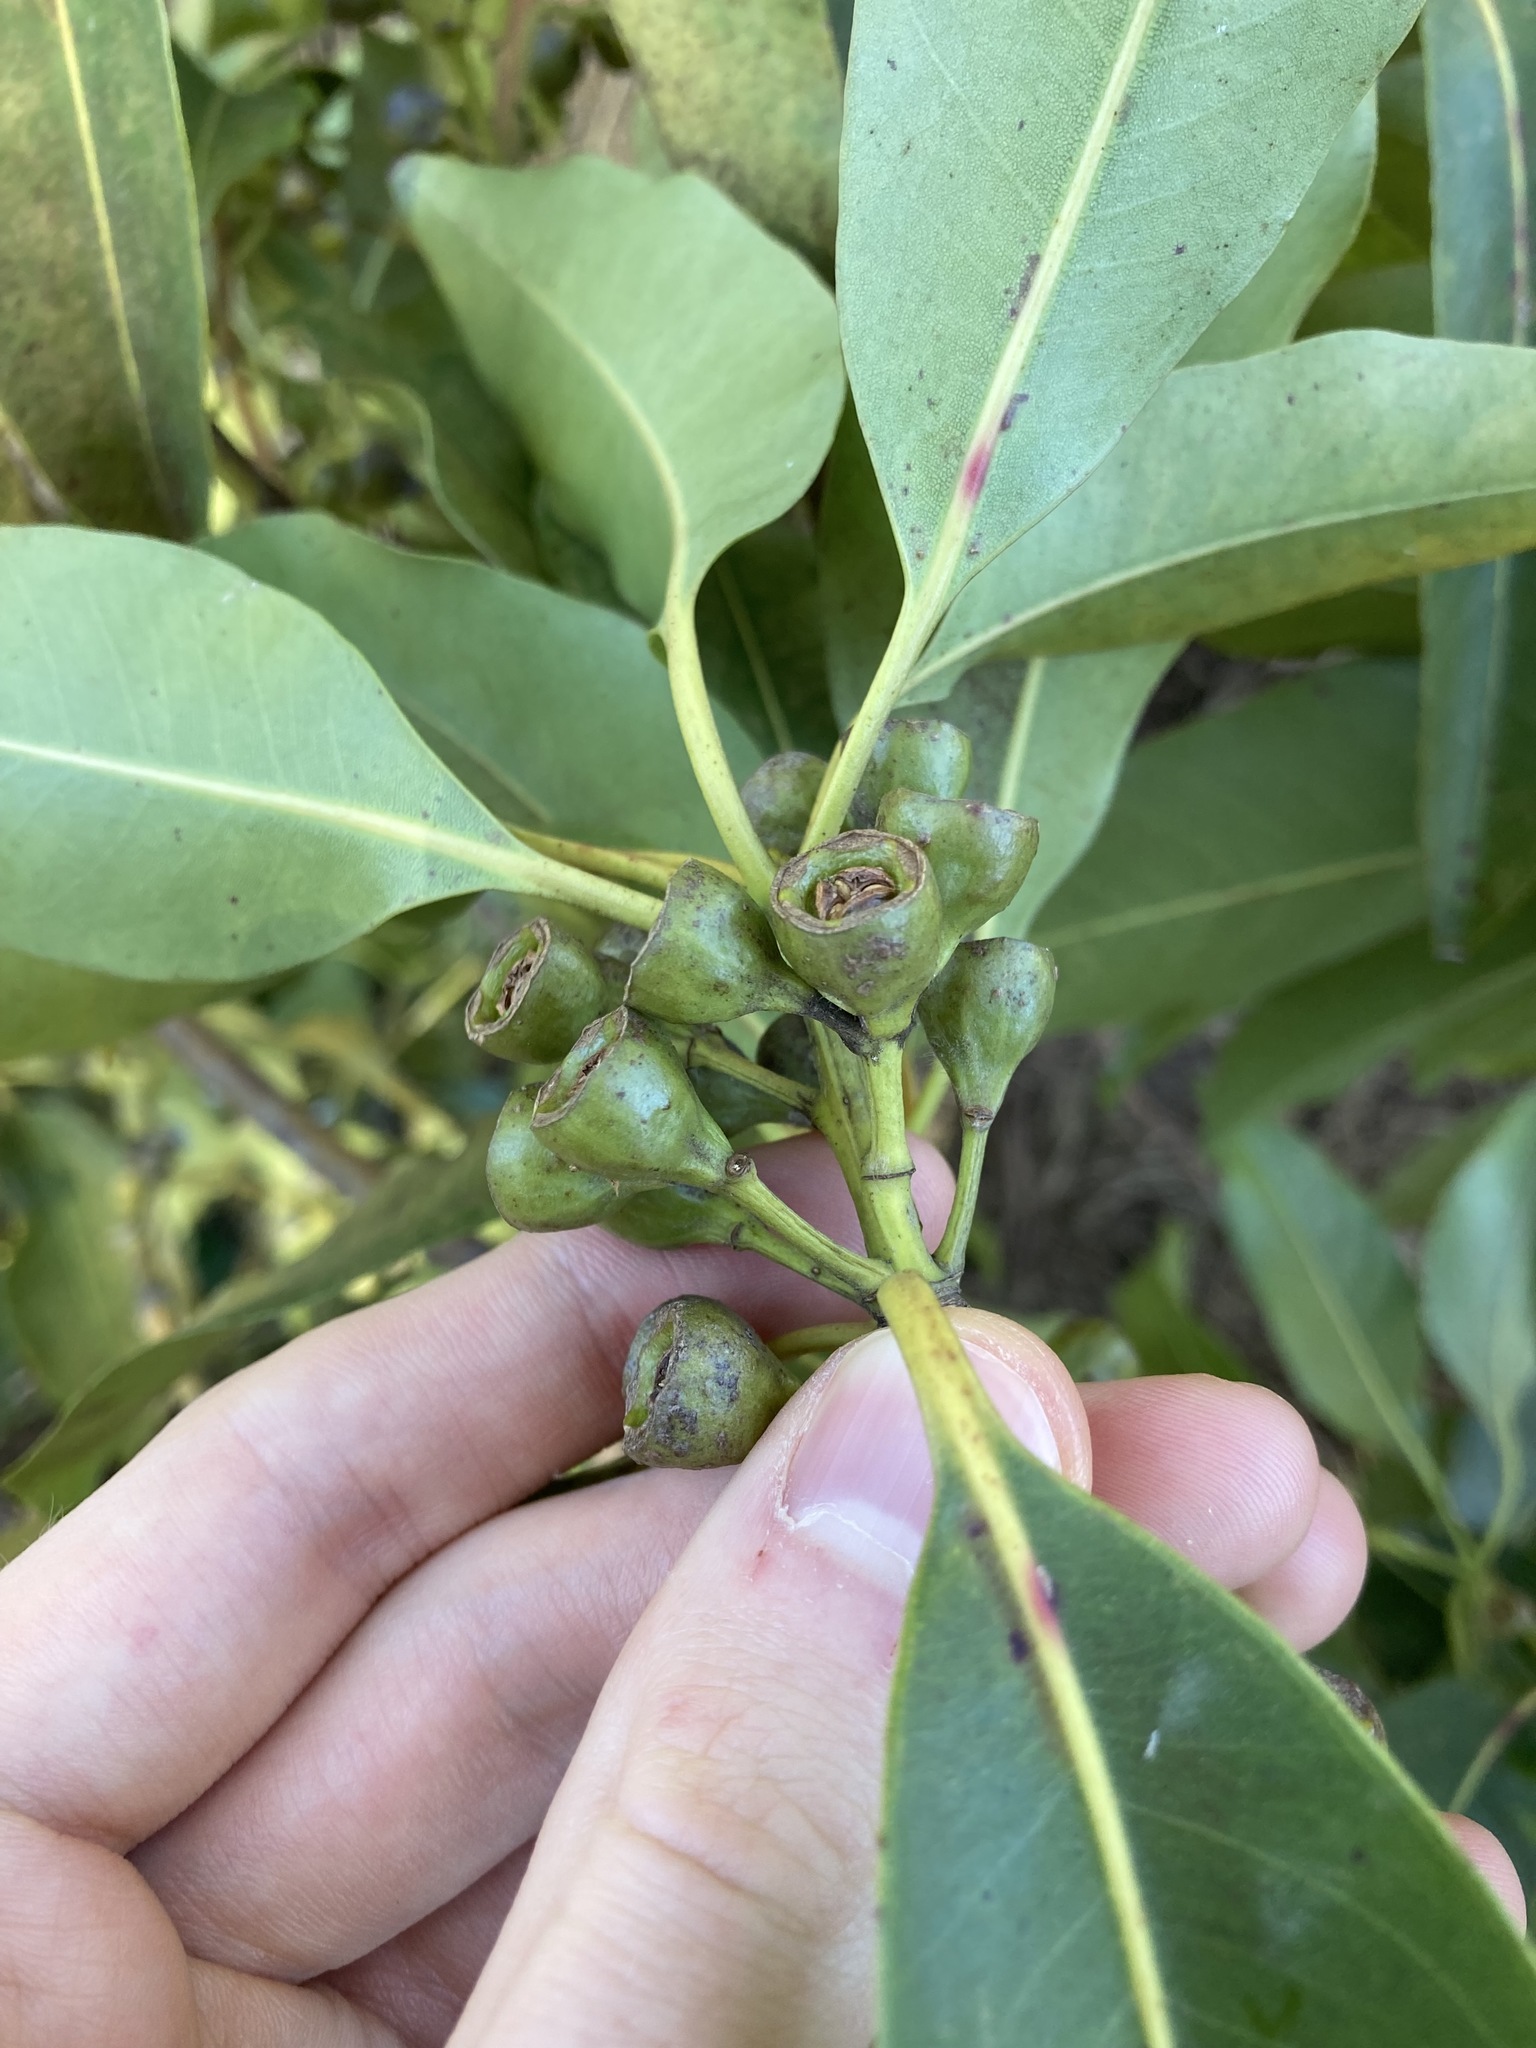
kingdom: Plantae
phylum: Tracheophyta
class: Magnoliopsida
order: Myrtales
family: Myrtaceae
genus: Lophostemon
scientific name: Lophostemon confertus
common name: Brisbane box
